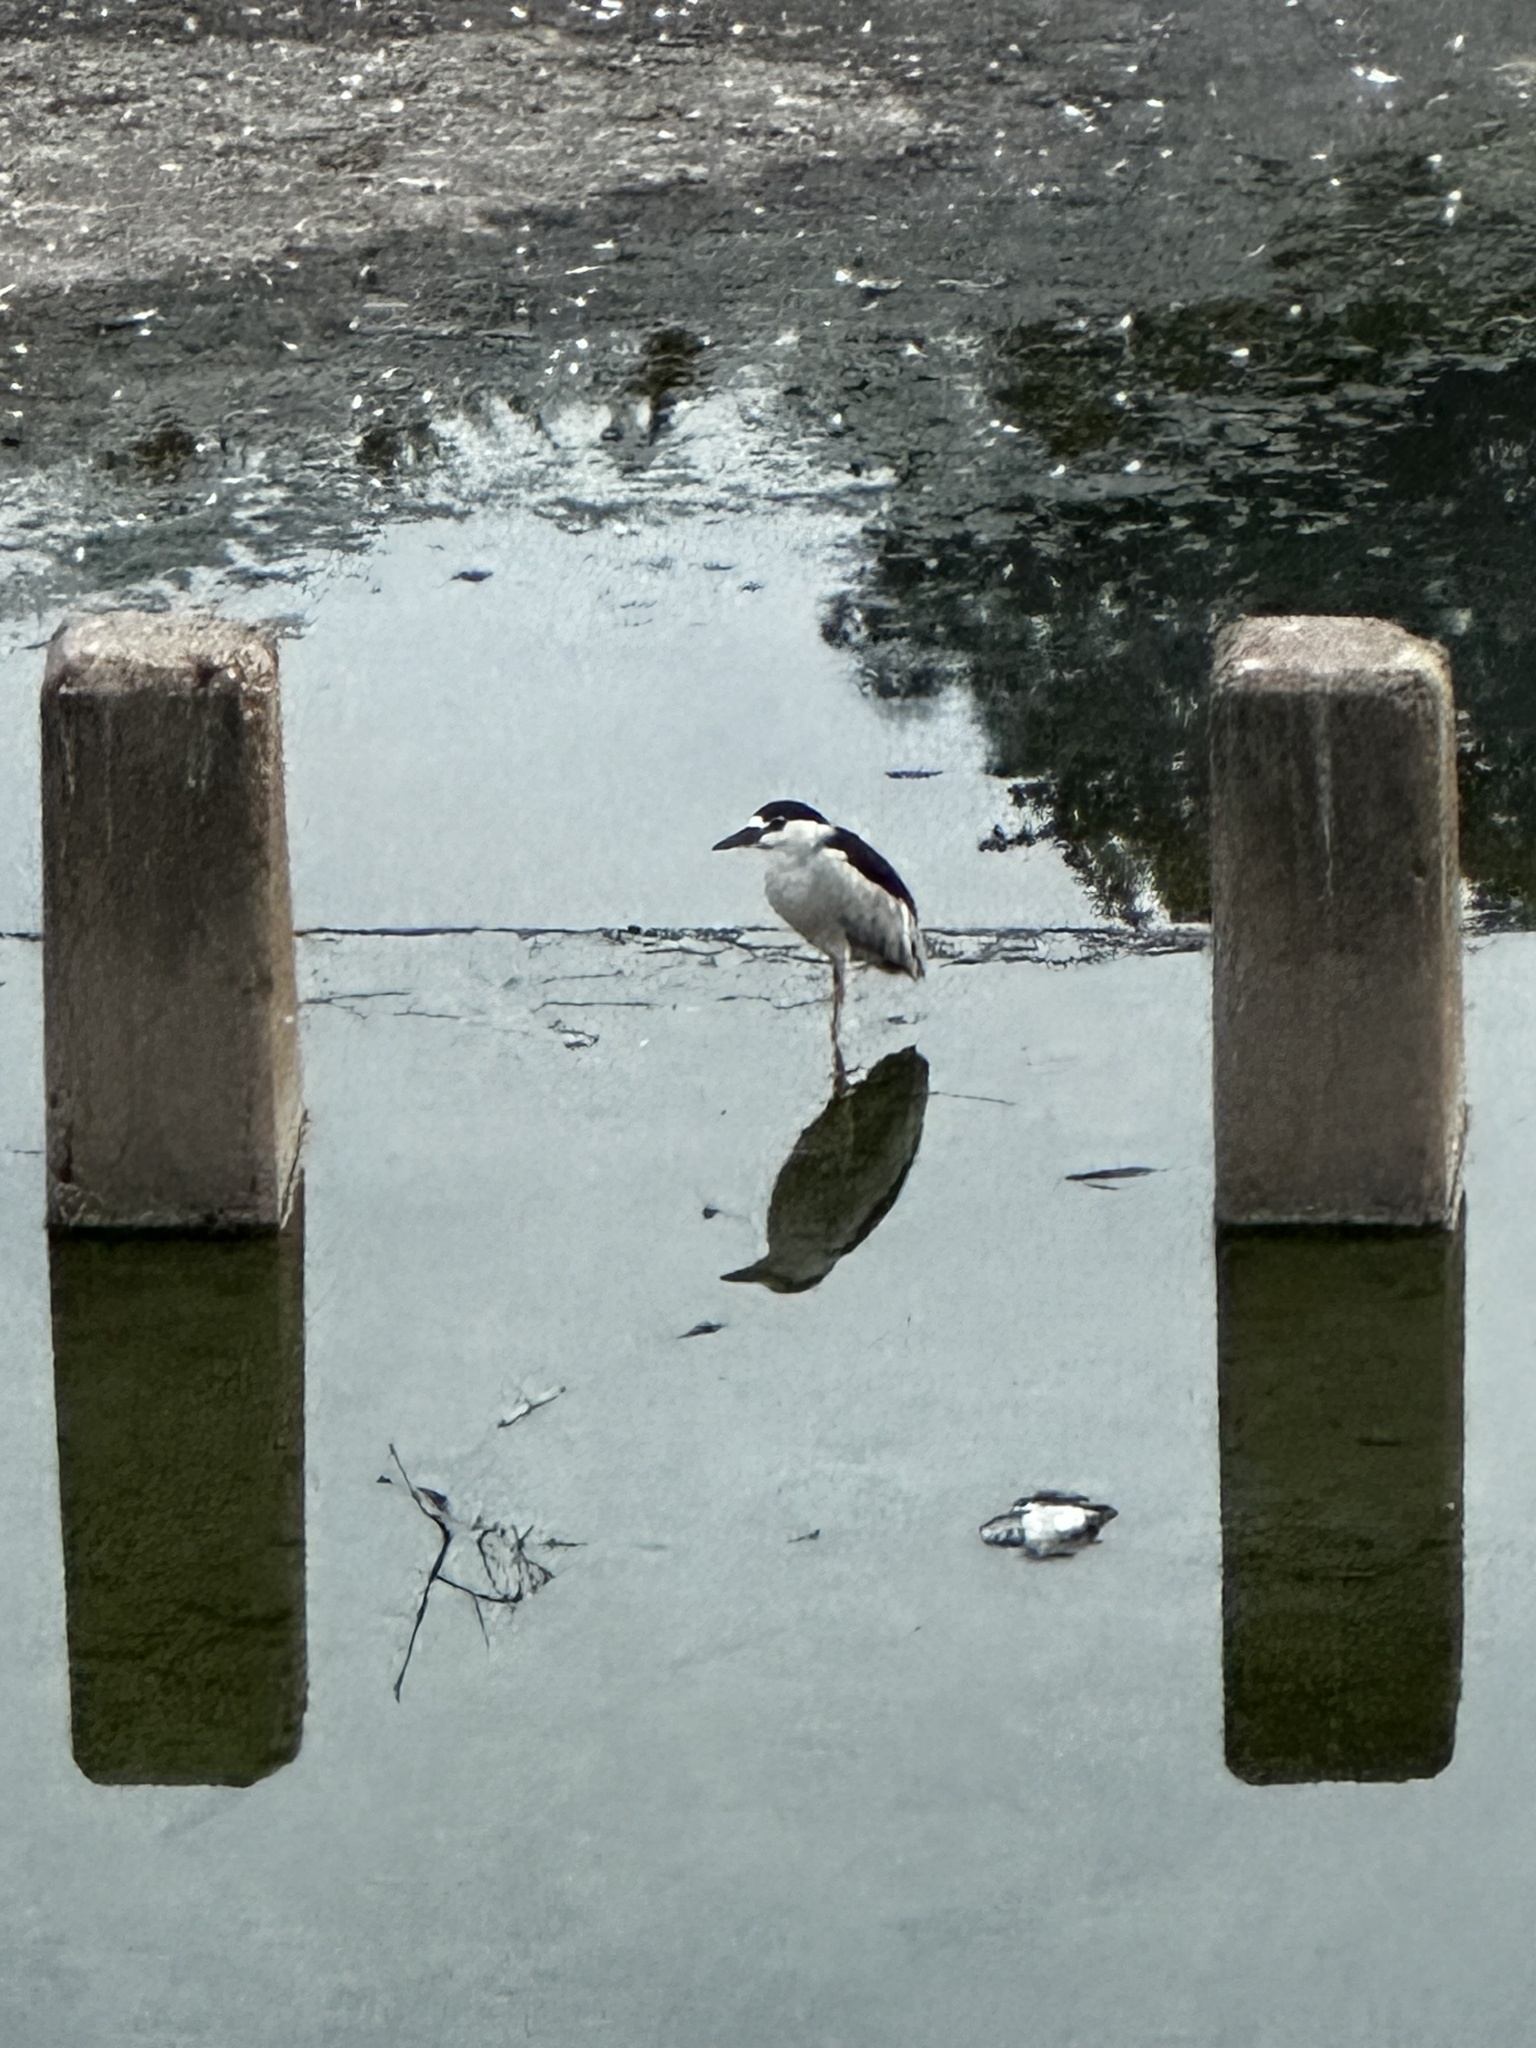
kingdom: Animalia
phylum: Chordata
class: Aves
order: Pelecaniformes
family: Ardeidae
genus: Nycticorax
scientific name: Nycticorax nycticorax
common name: Black-crowned night heron
